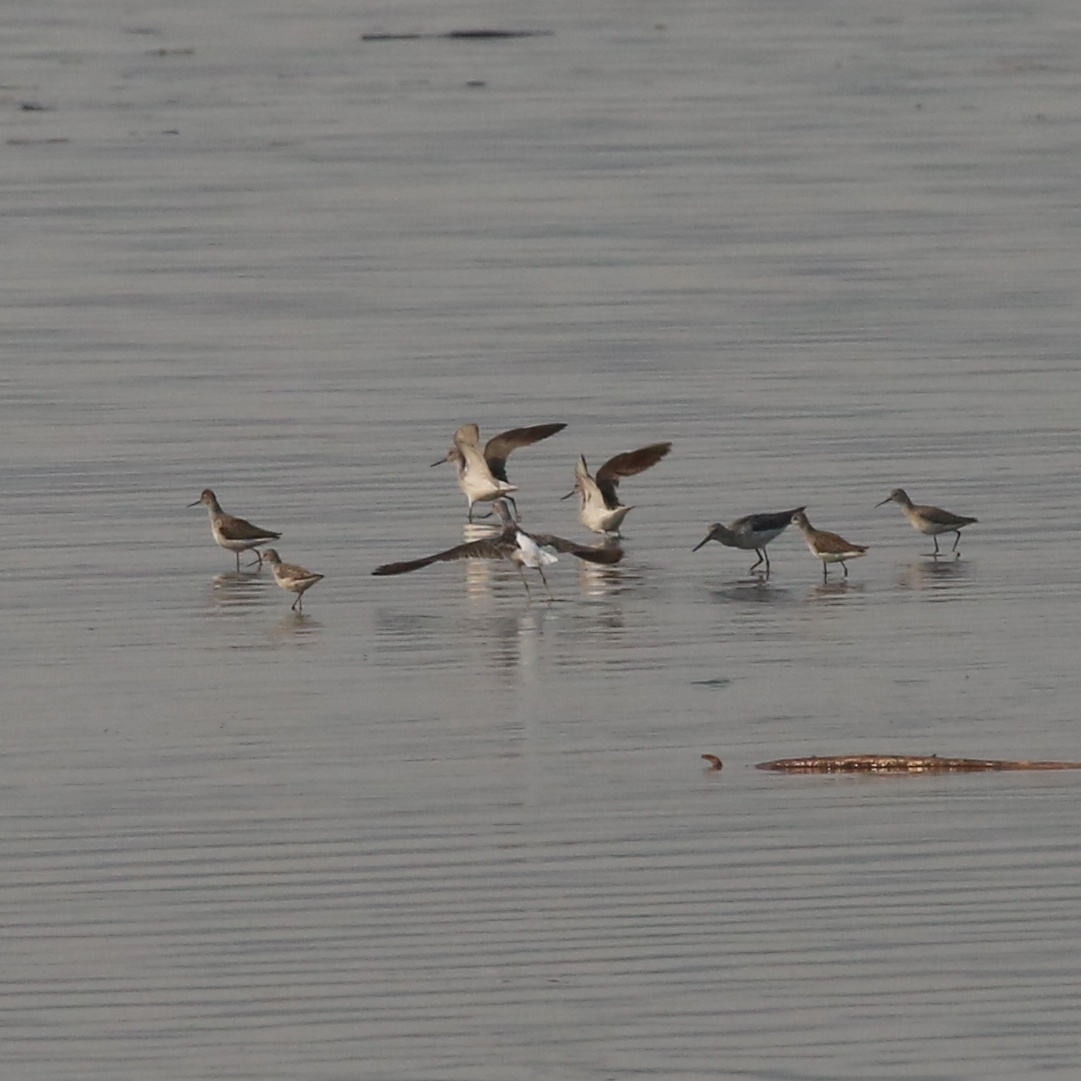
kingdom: Animalia
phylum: Chordata
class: Aves
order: Charadriiformes
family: Scolopacidae
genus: Tringa
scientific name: Tringa nebularia
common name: Common greenshank
